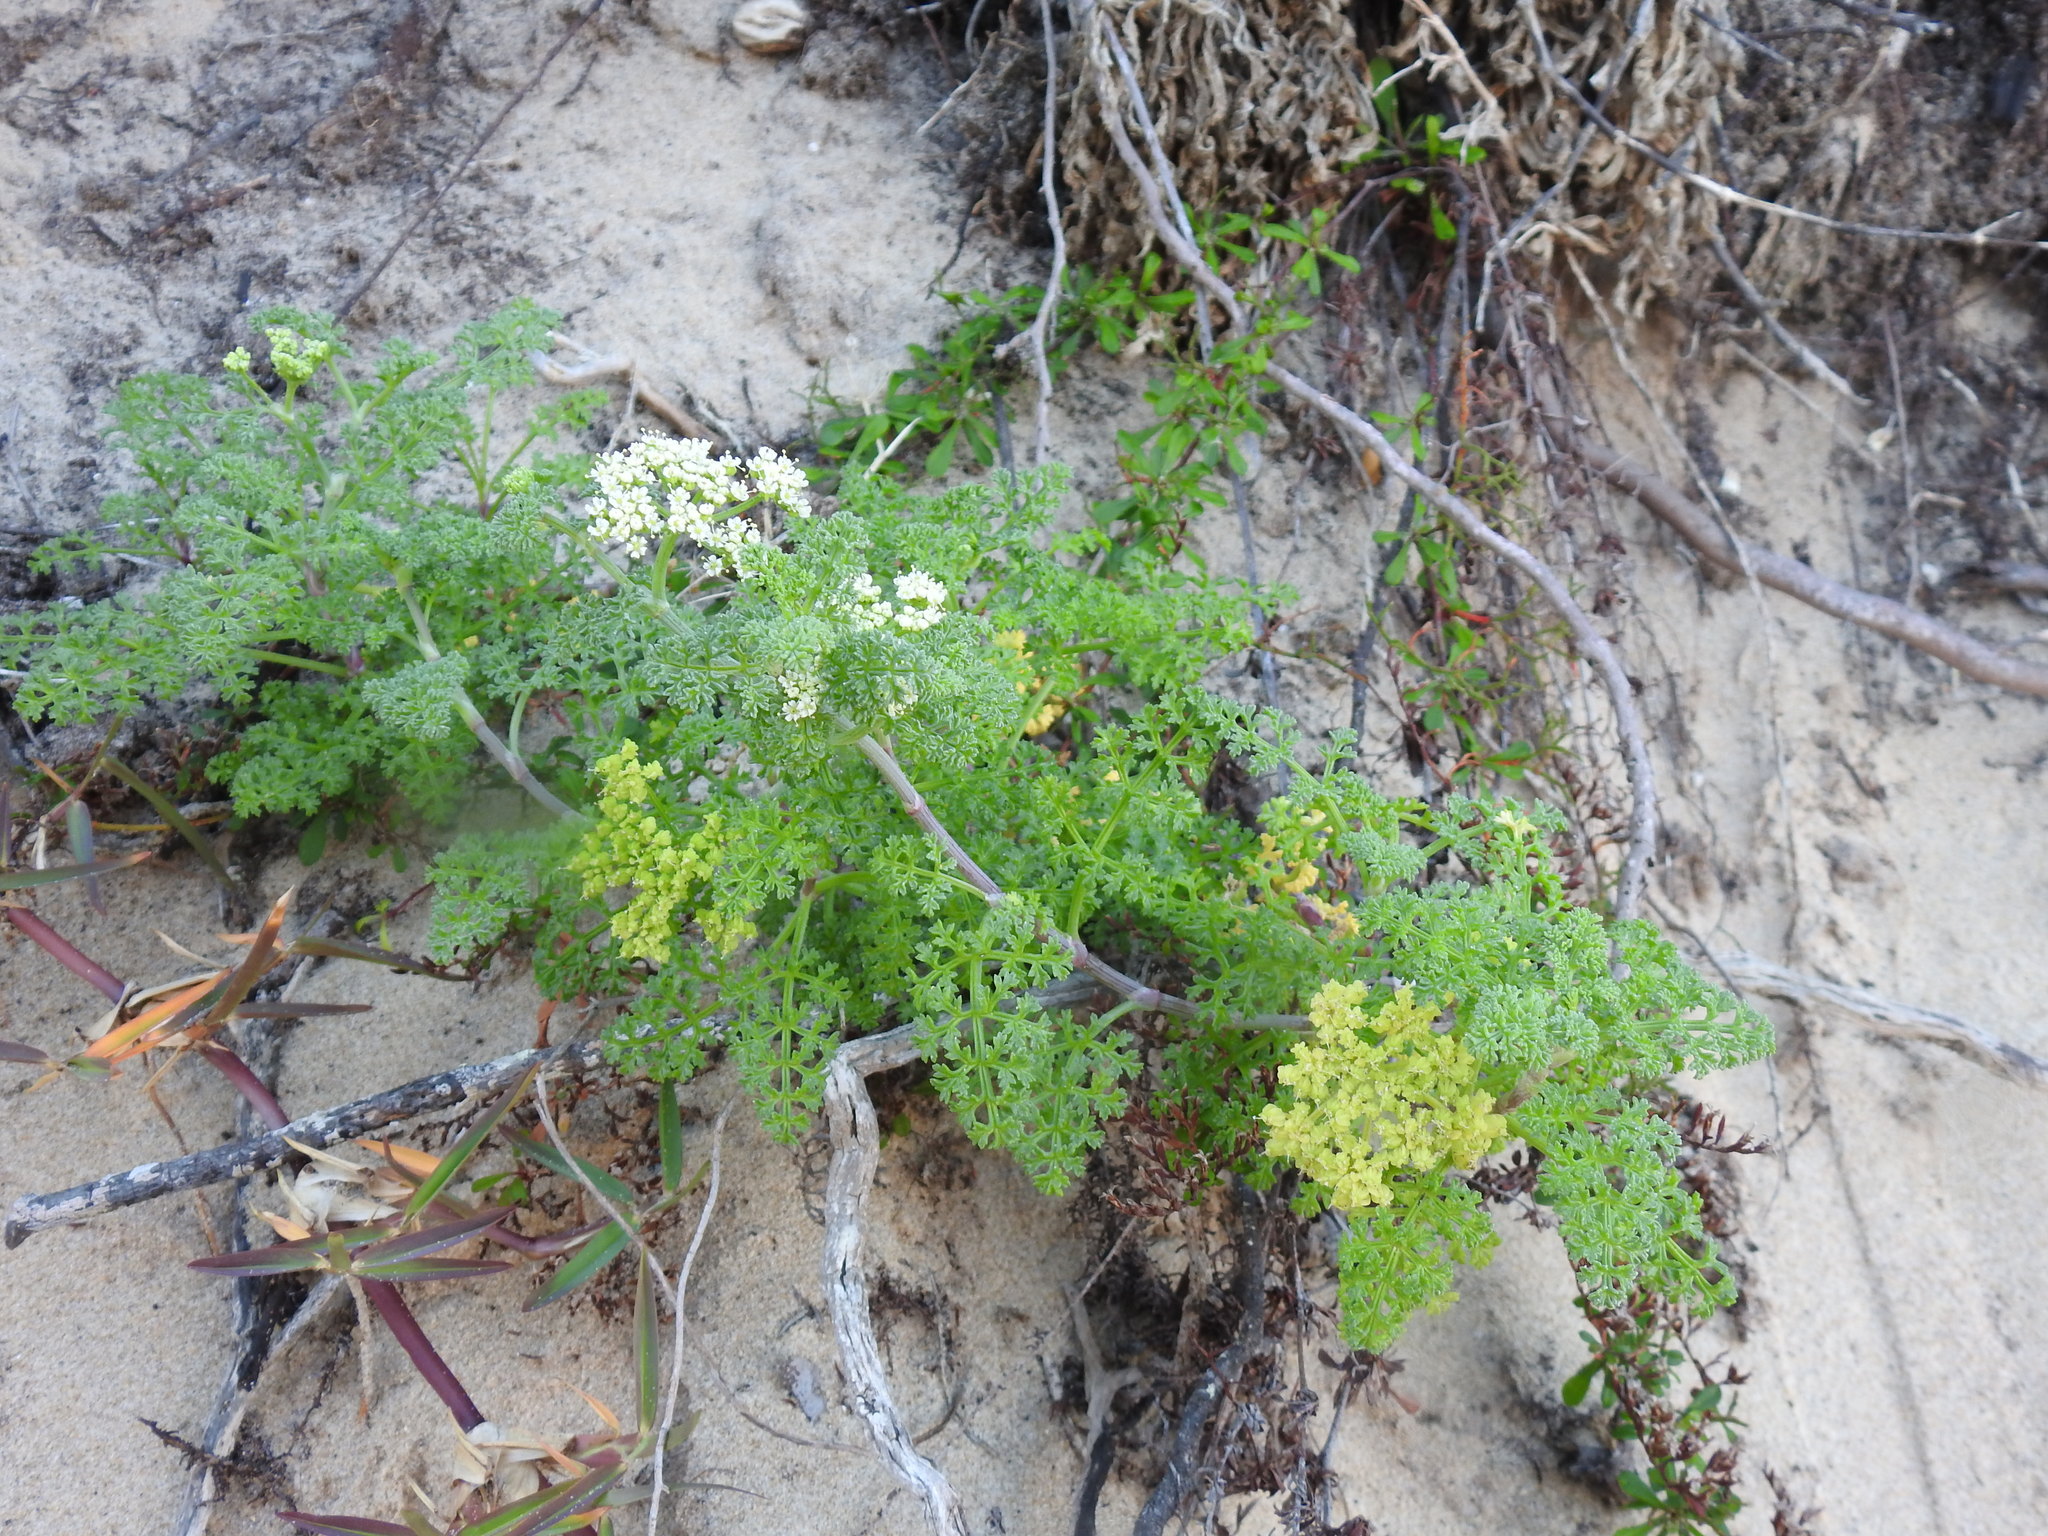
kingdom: Plantae
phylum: Tracheophyta
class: Magnoliopsida
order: Apiales
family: Apiaceae
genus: Dasispermum
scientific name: Dasispermum suffruticosum
